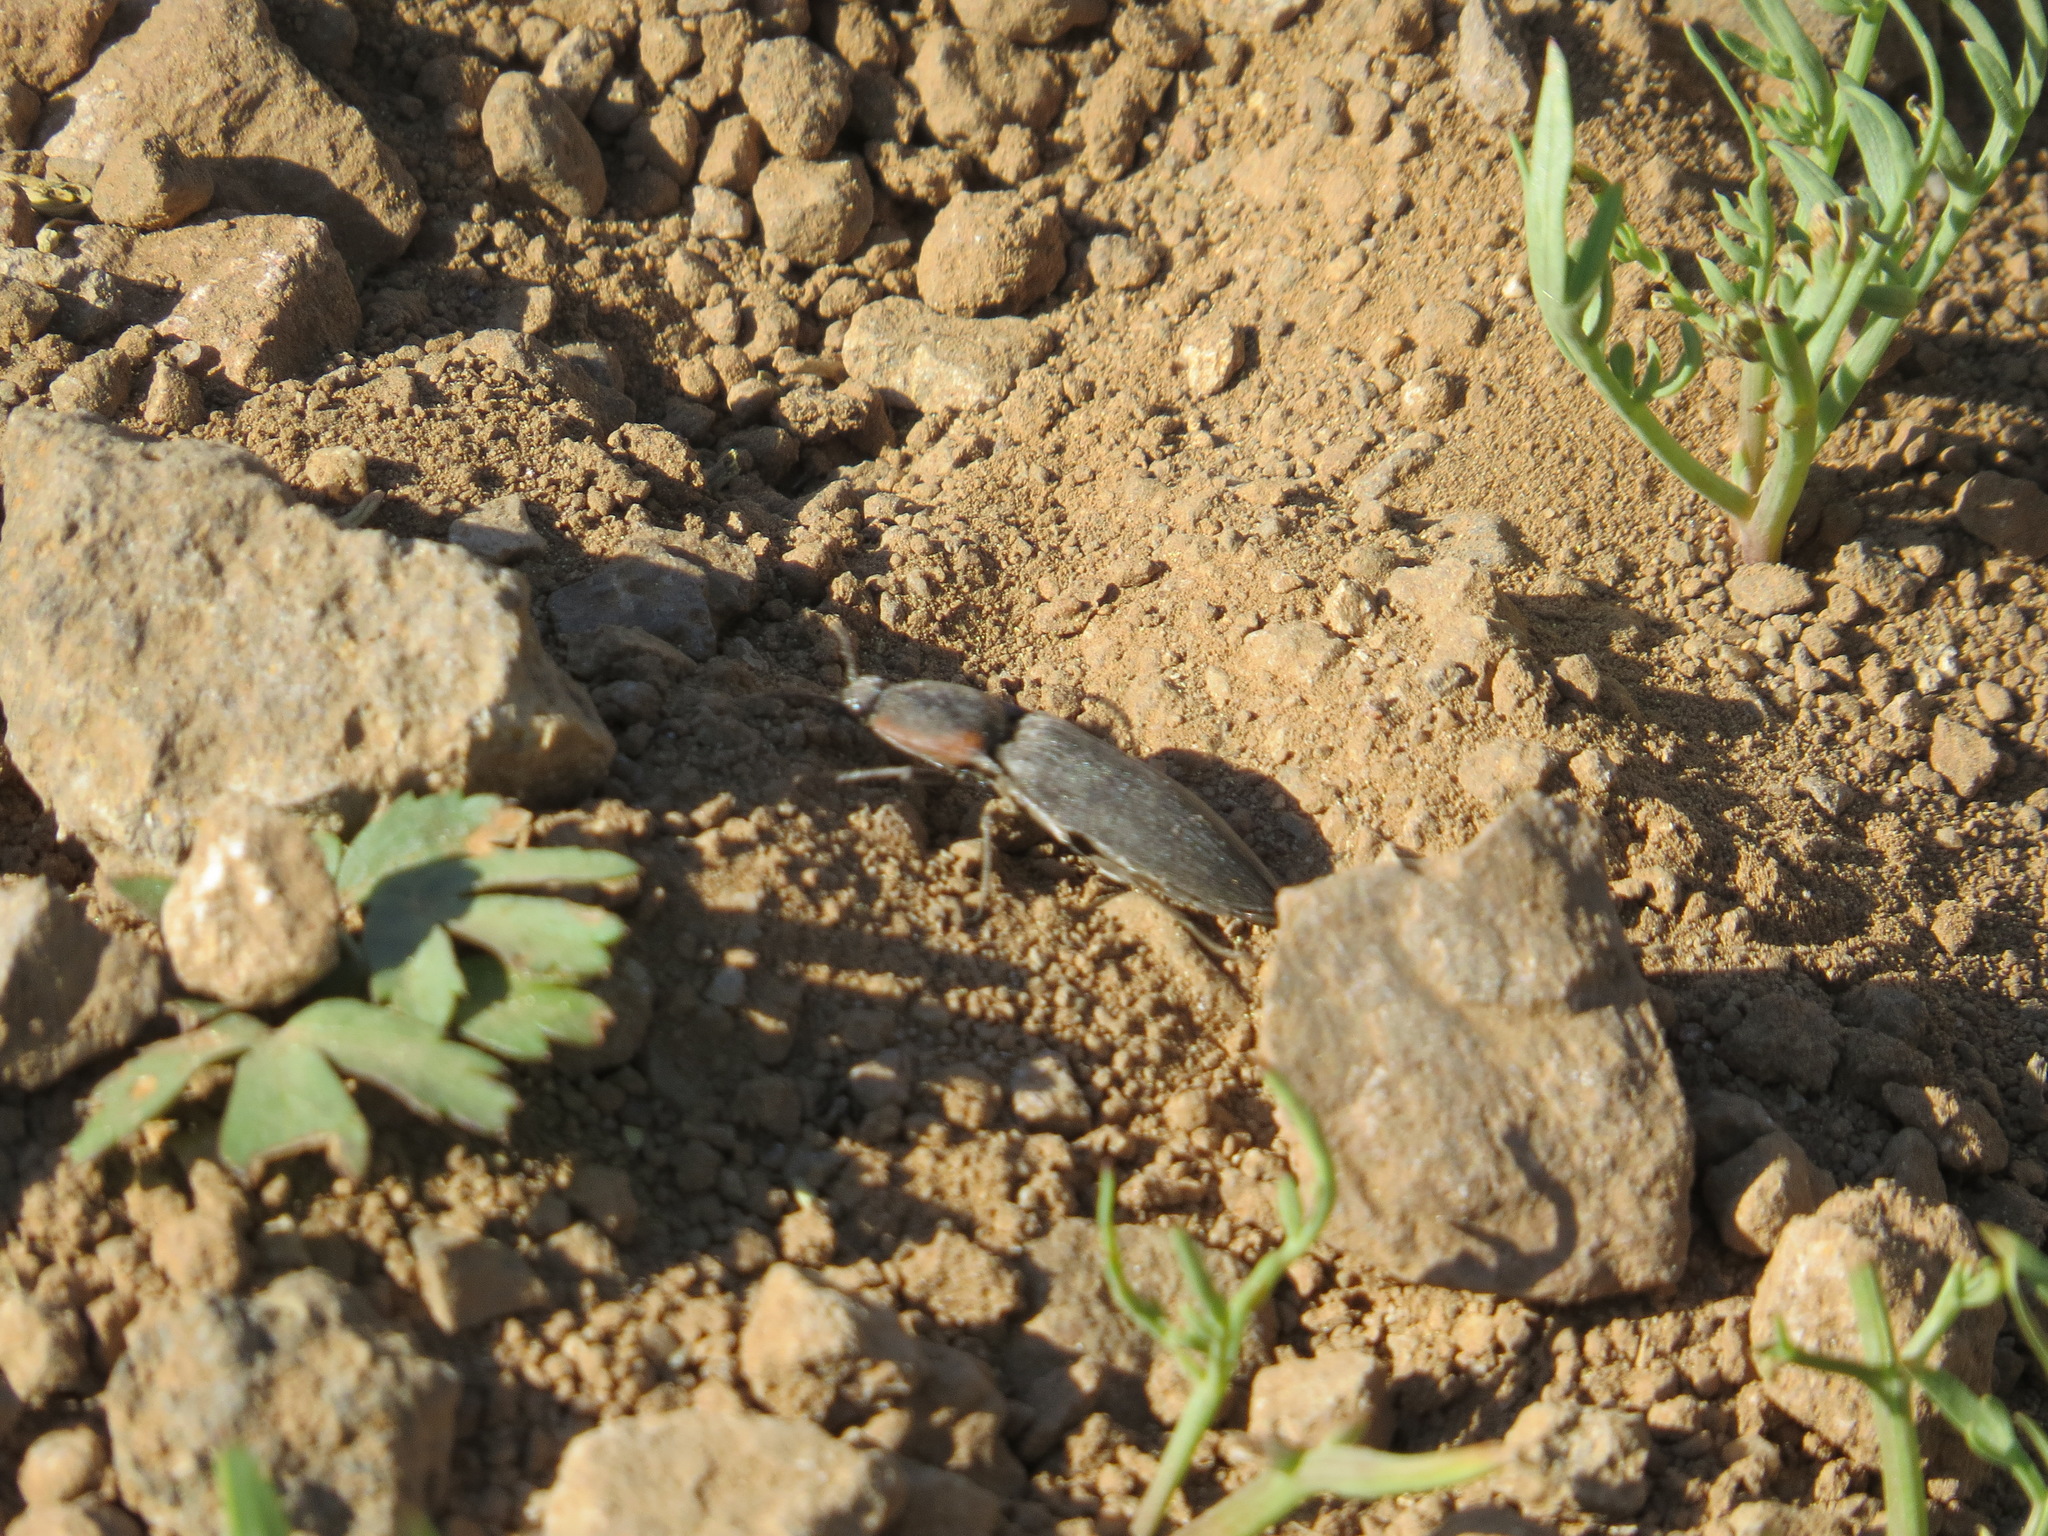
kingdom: Animalia
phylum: Arthropoda
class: Insecta
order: Coleoptera
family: Elateridae
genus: Selatosomus
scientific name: Selatosomus
